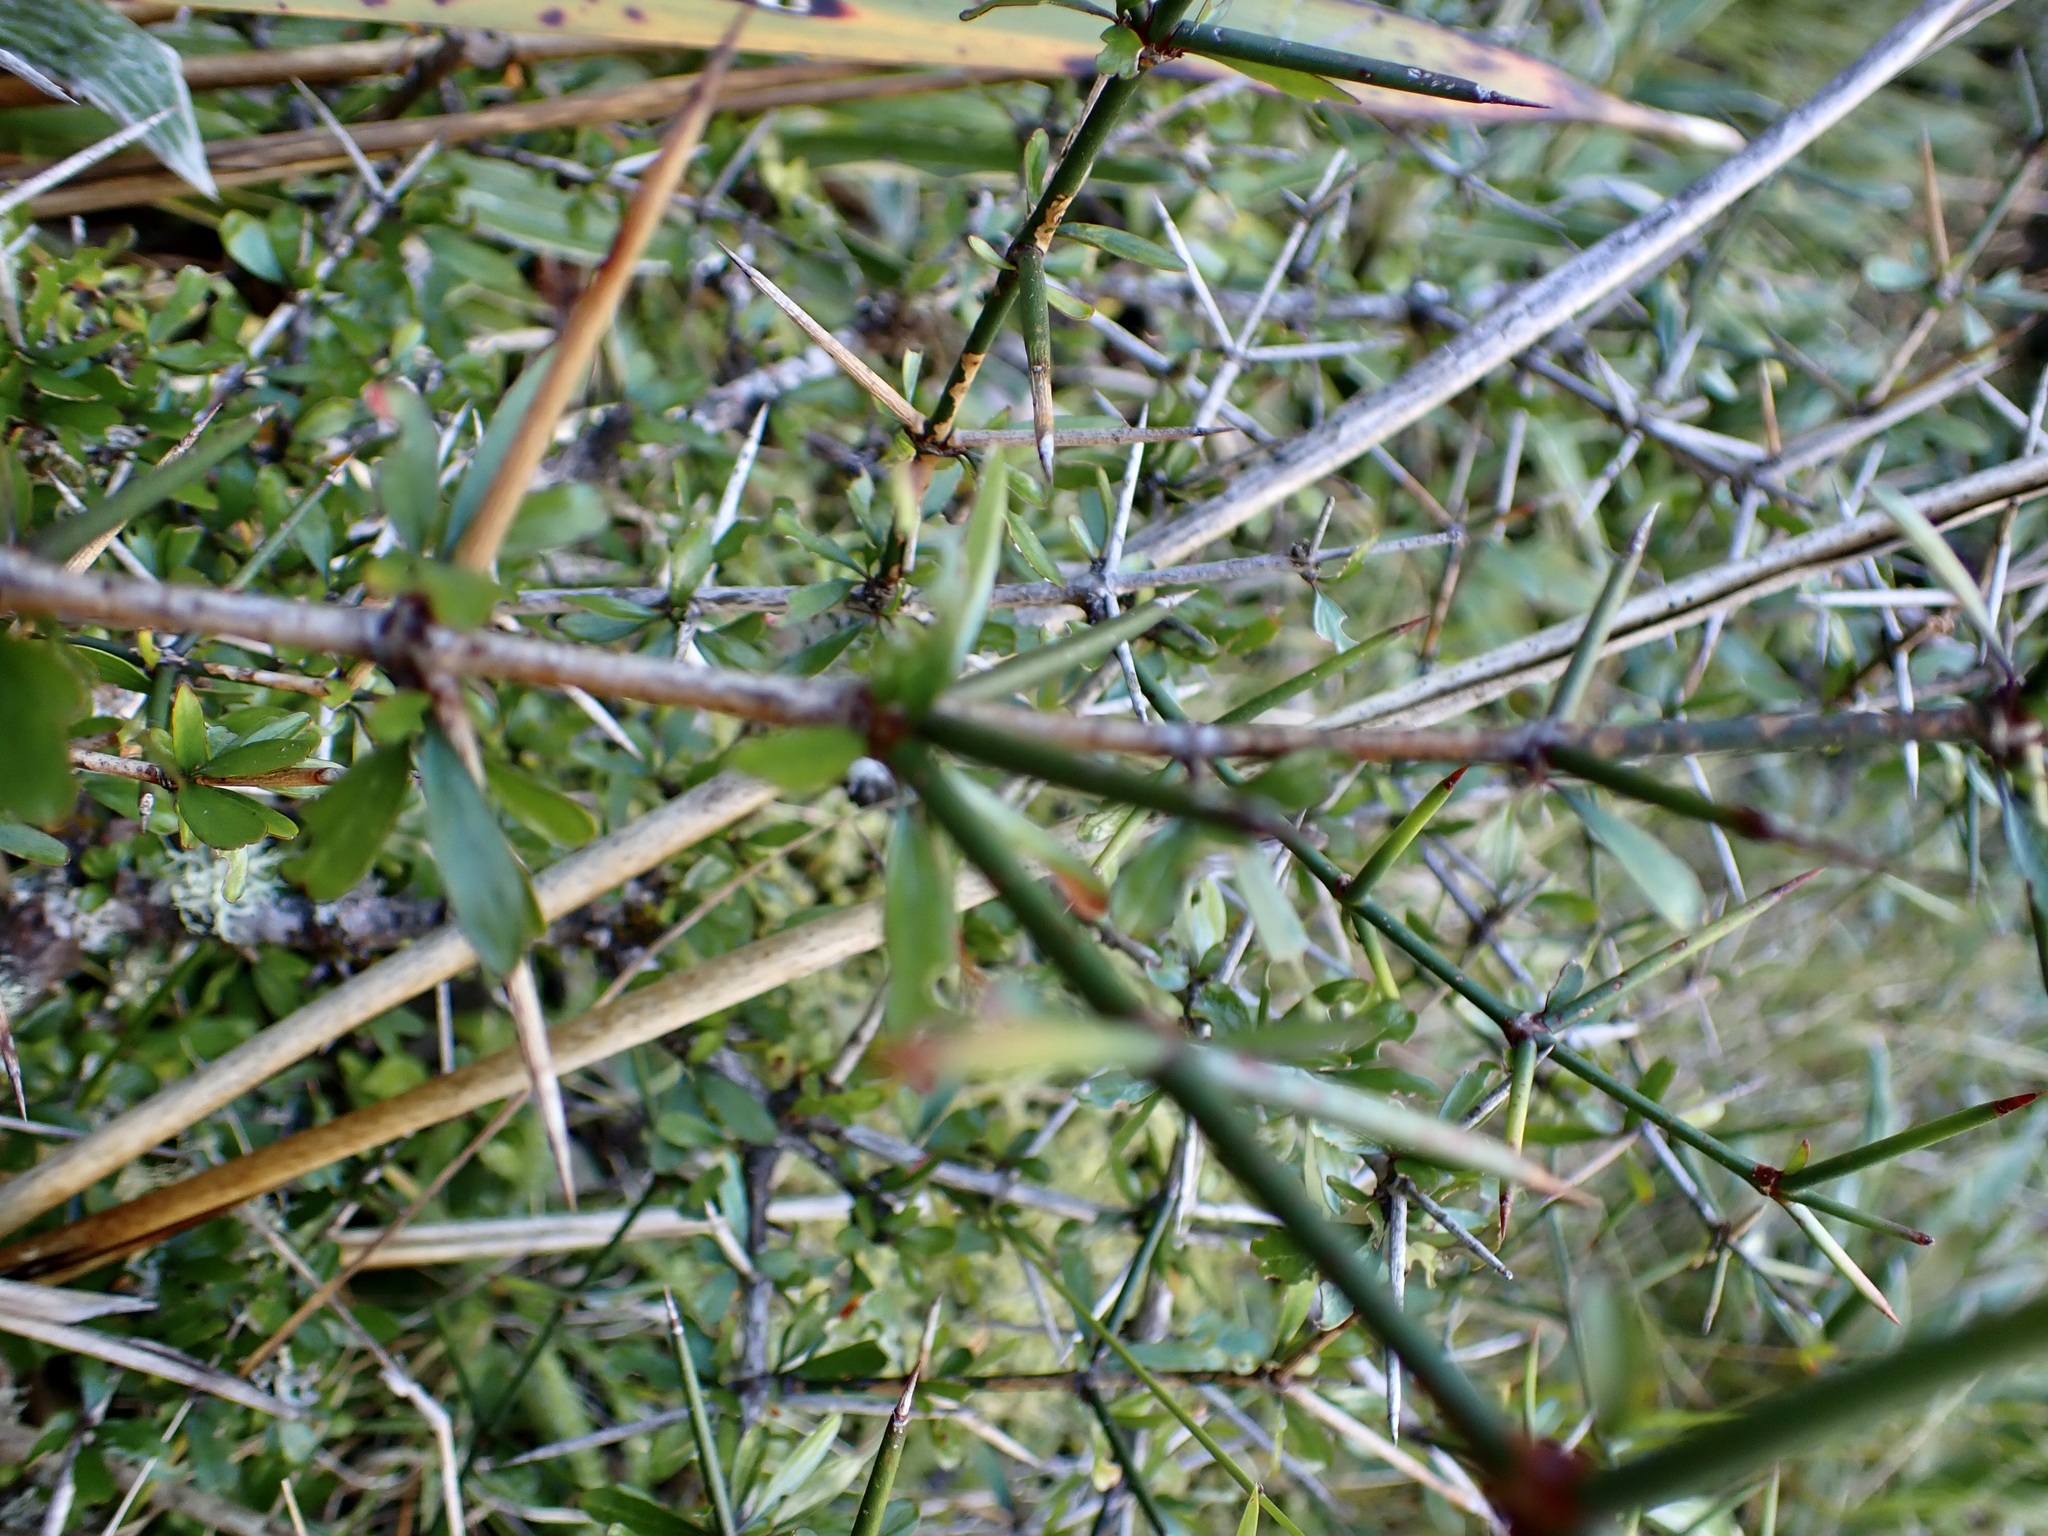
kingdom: Plantae
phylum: Tracheophyta
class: Magnoliopsida
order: Rosales
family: Rhamnaceae
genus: Discaria
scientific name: Discaria toumatou
